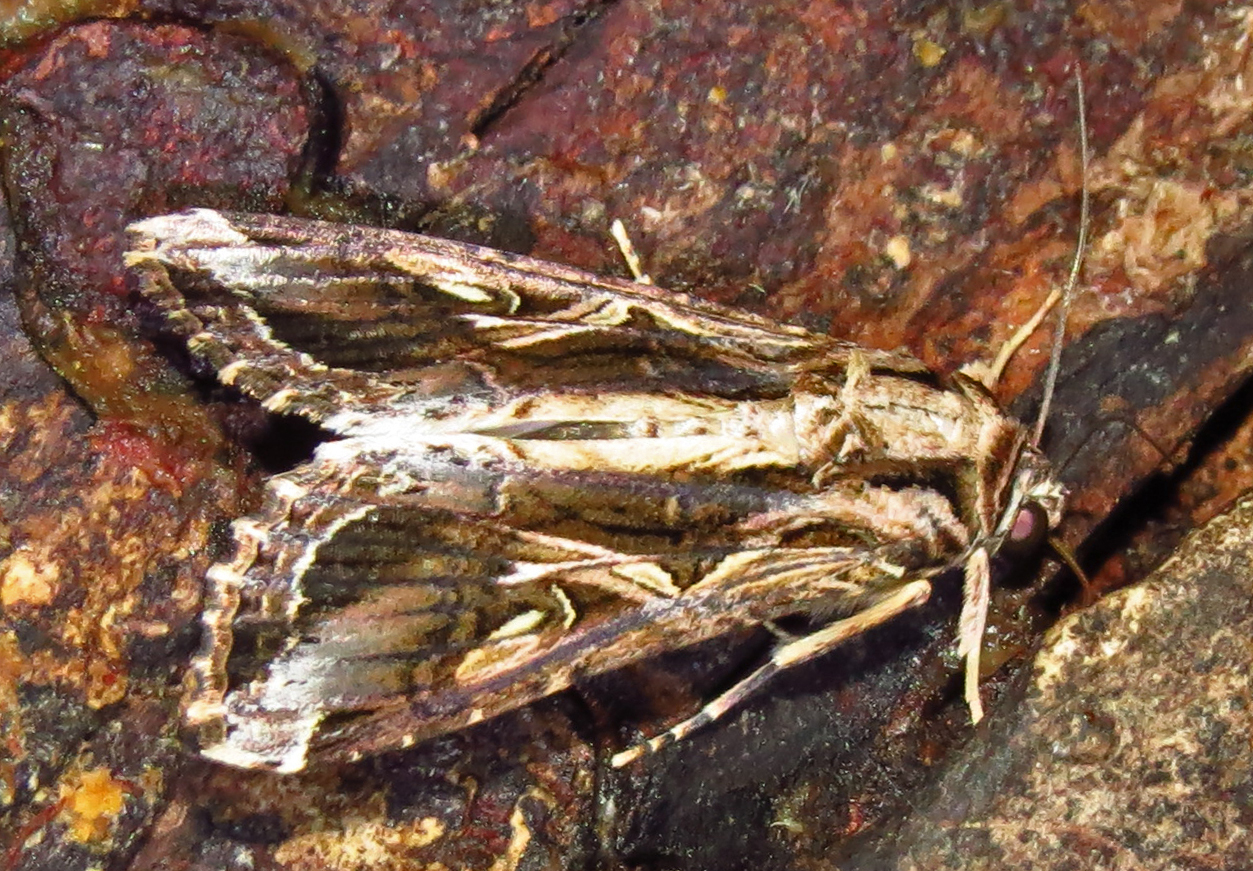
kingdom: Animalia
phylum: Arthropoda
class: Insecta
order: Lepidoptera
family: Noctuidae
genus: Spodoptera
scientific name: Spodoptera dolichos
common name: Sweetpotato armyworm
